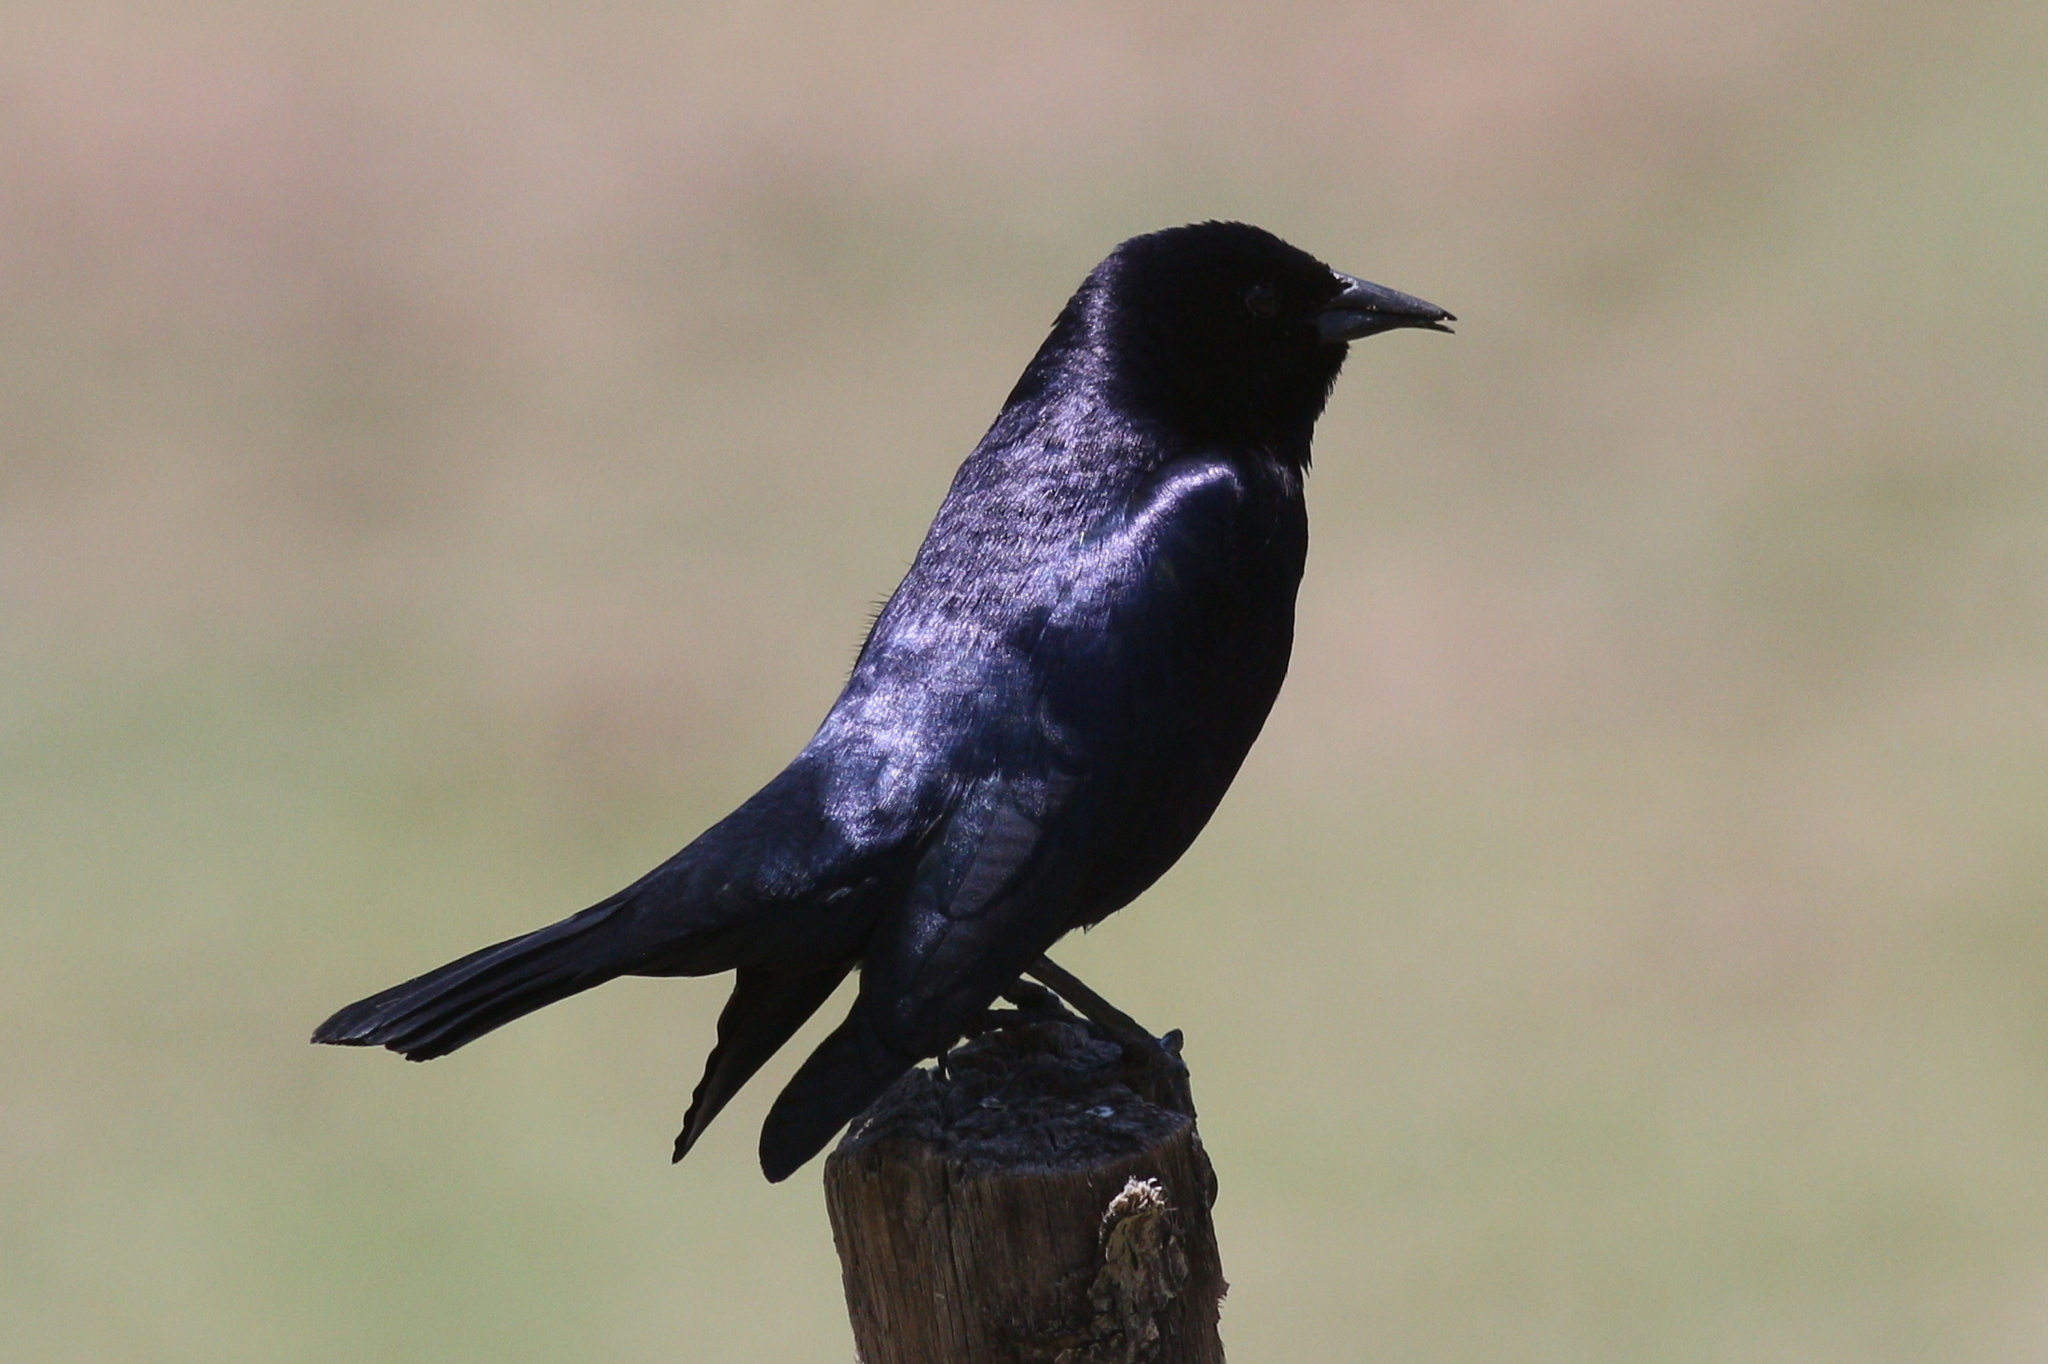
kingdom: Animalia
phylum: Chordata
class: Aves
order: Passeriformes
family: Icteridae
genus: Molothrus
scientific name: Molothrus bonariensis
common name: Shiny cowbird
